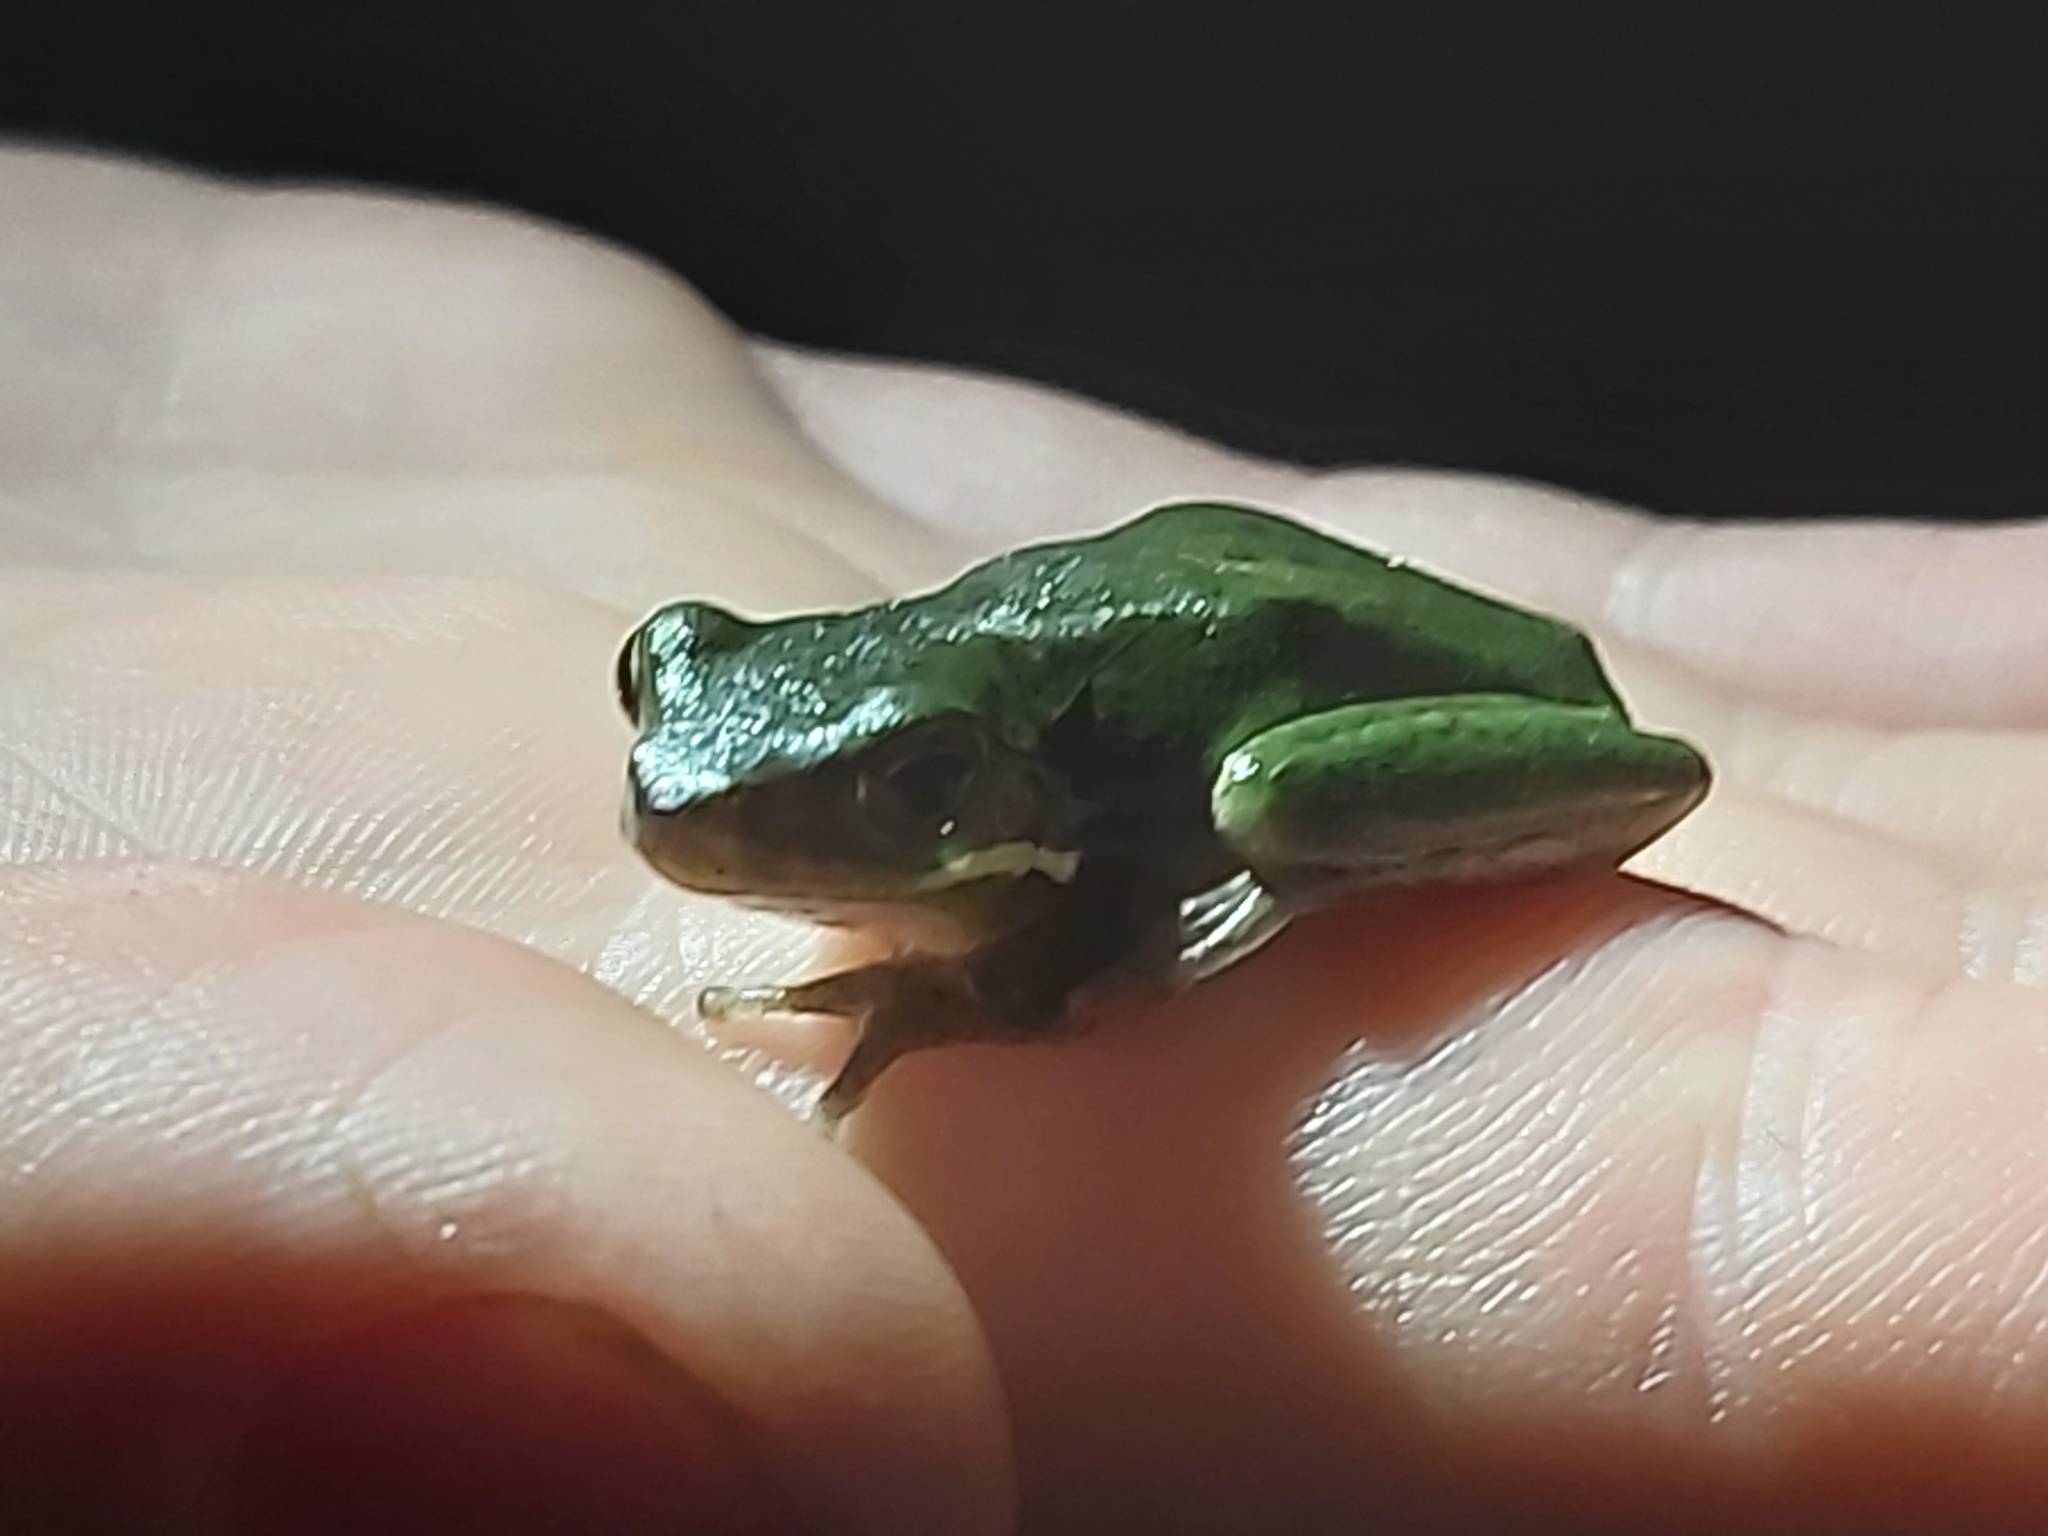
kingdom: Animalia
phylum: Chordata
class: Amphibia
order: Anura
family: Pelodryadidae
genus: Litoria
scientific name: Litoria fallax
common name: Eastern dwarf treefrog
